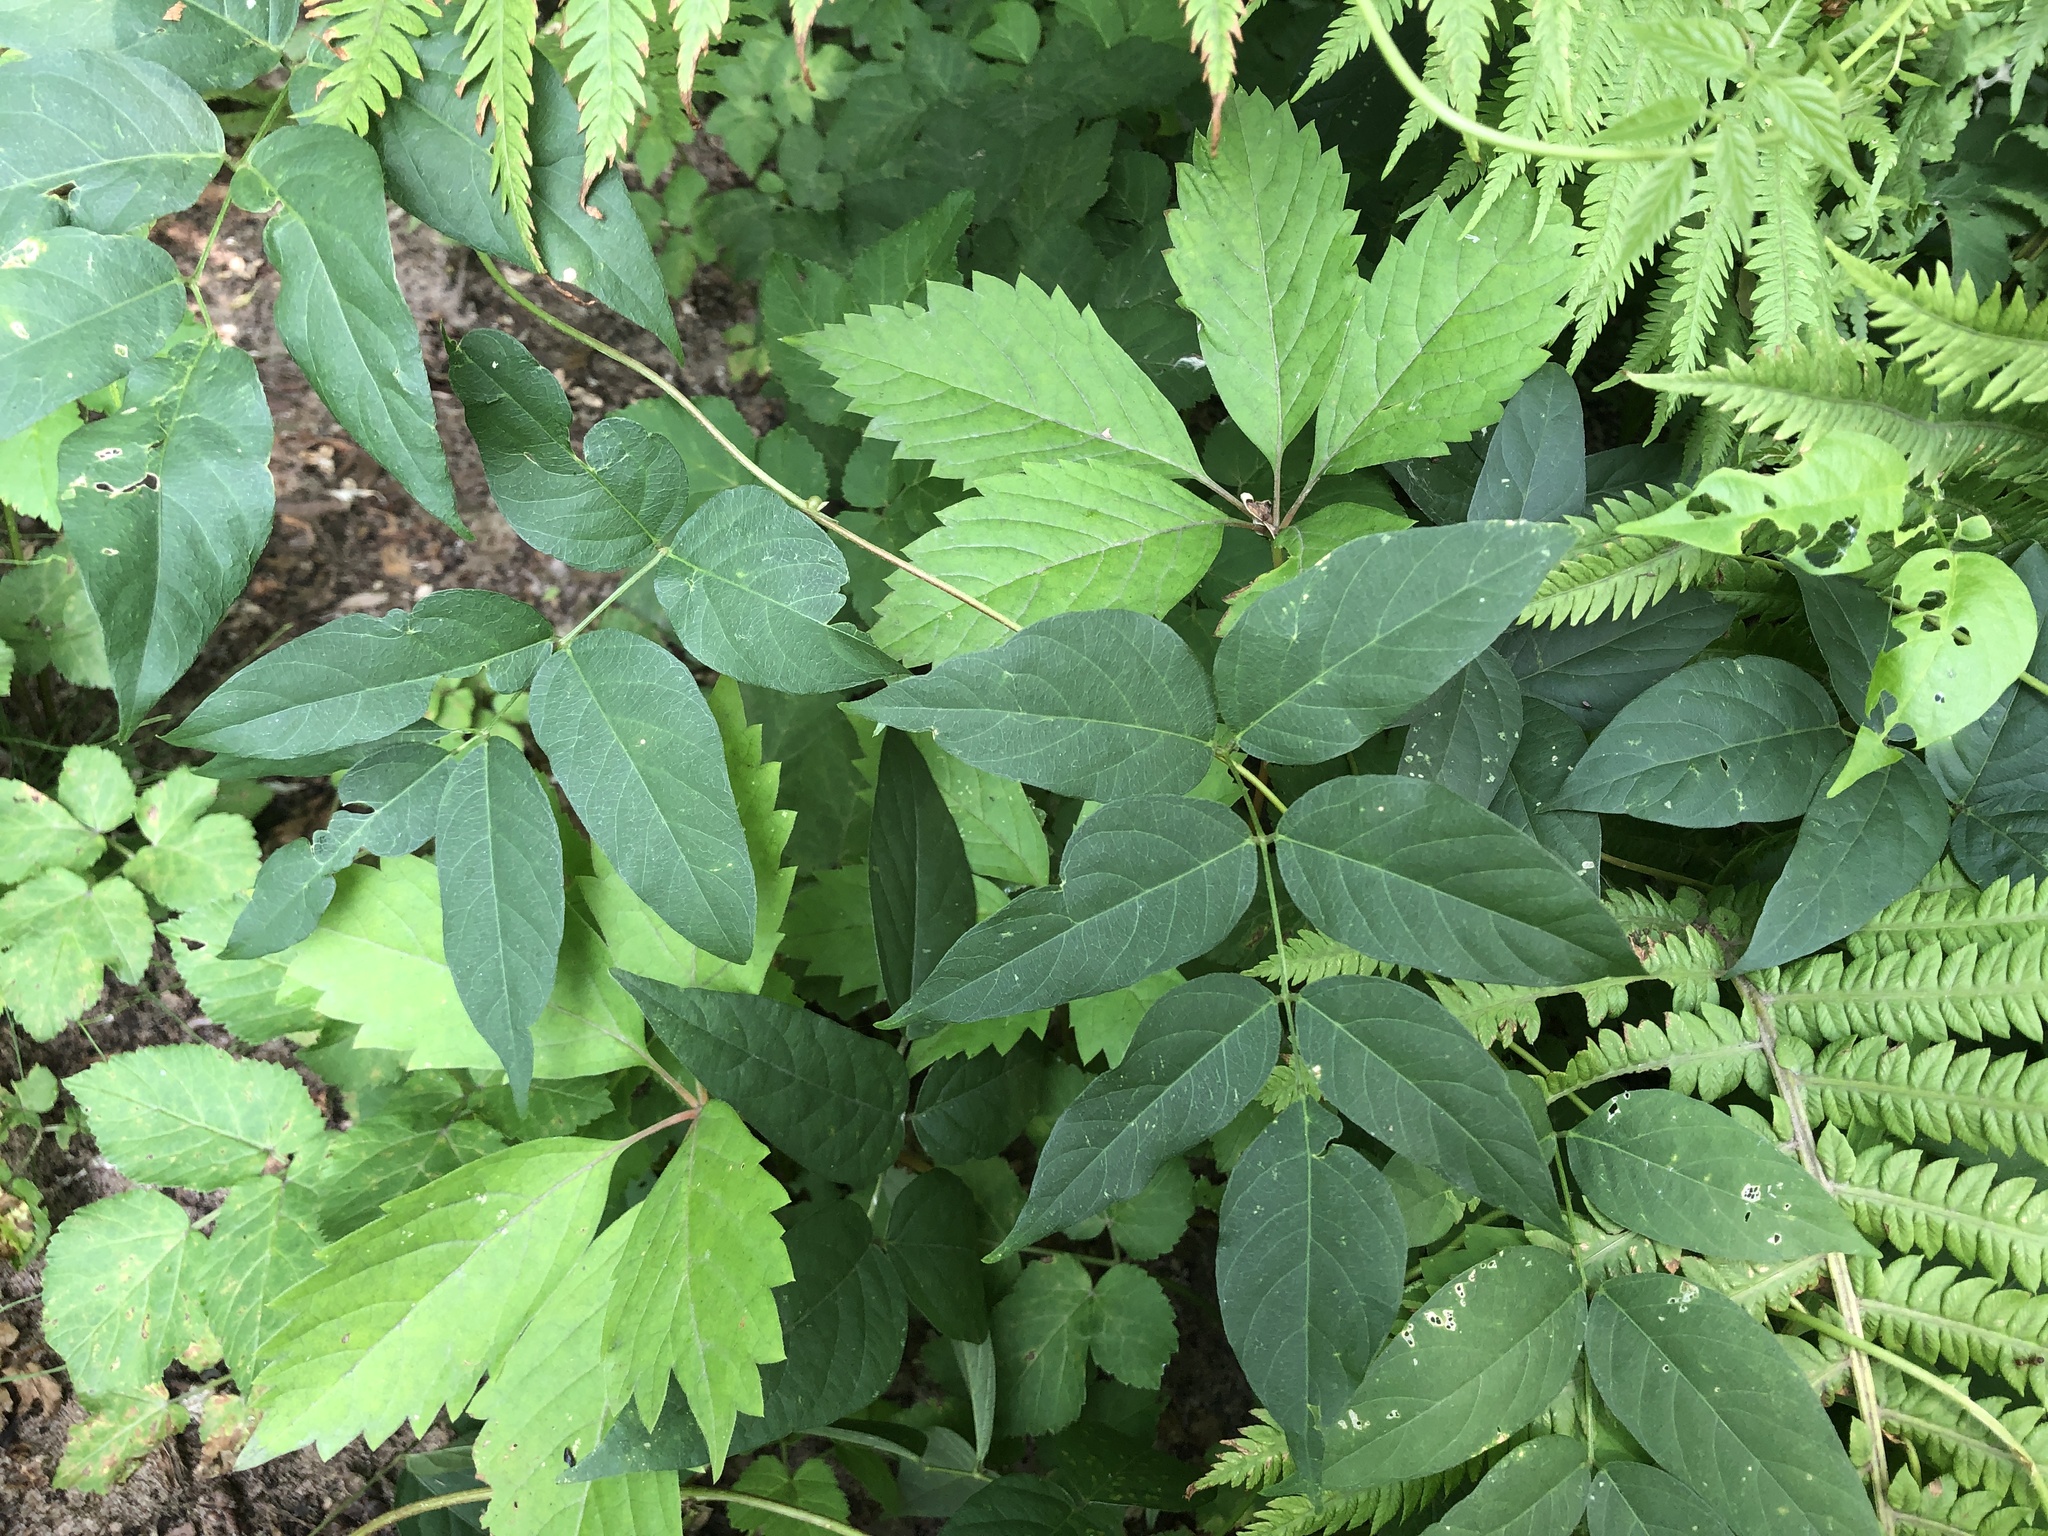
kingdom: Plantae
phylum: Tracheophyta
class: Magnoliopsida
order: Fabales
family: Fabaceae
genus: Apios
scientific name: Apios americana
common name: American potato-bean
